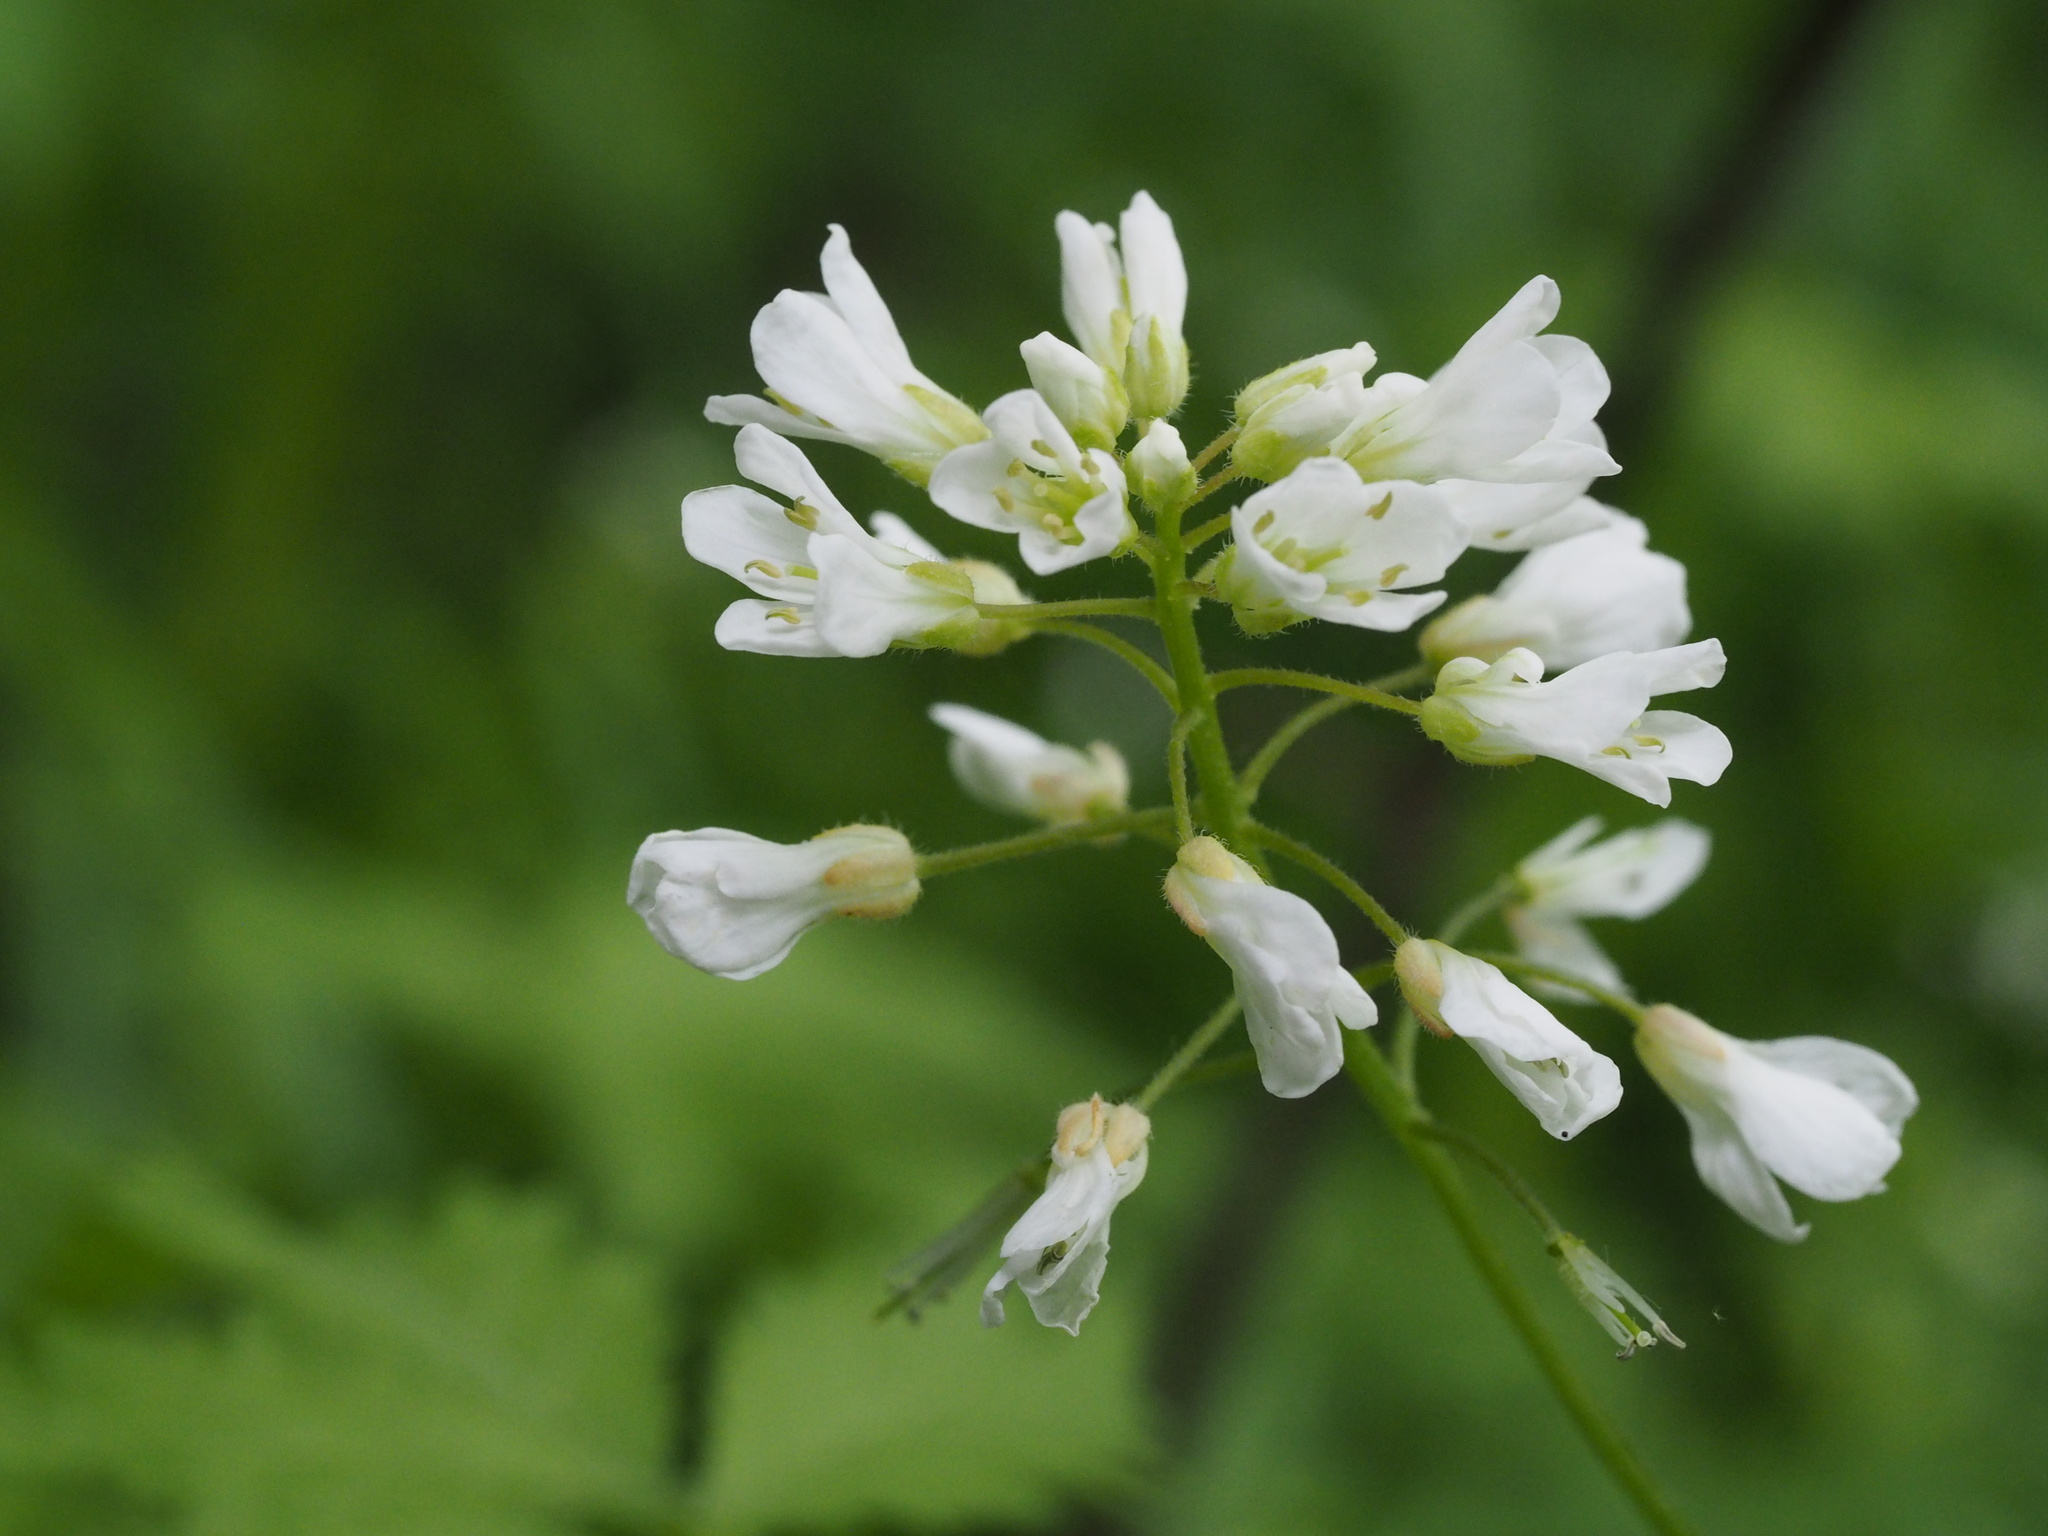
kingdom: Plantae
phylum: Tracheophyta
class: Magnoliopsida
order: Brassicales
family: Brassicaceae
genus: Cardamine
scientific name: Cardamine leucantha
